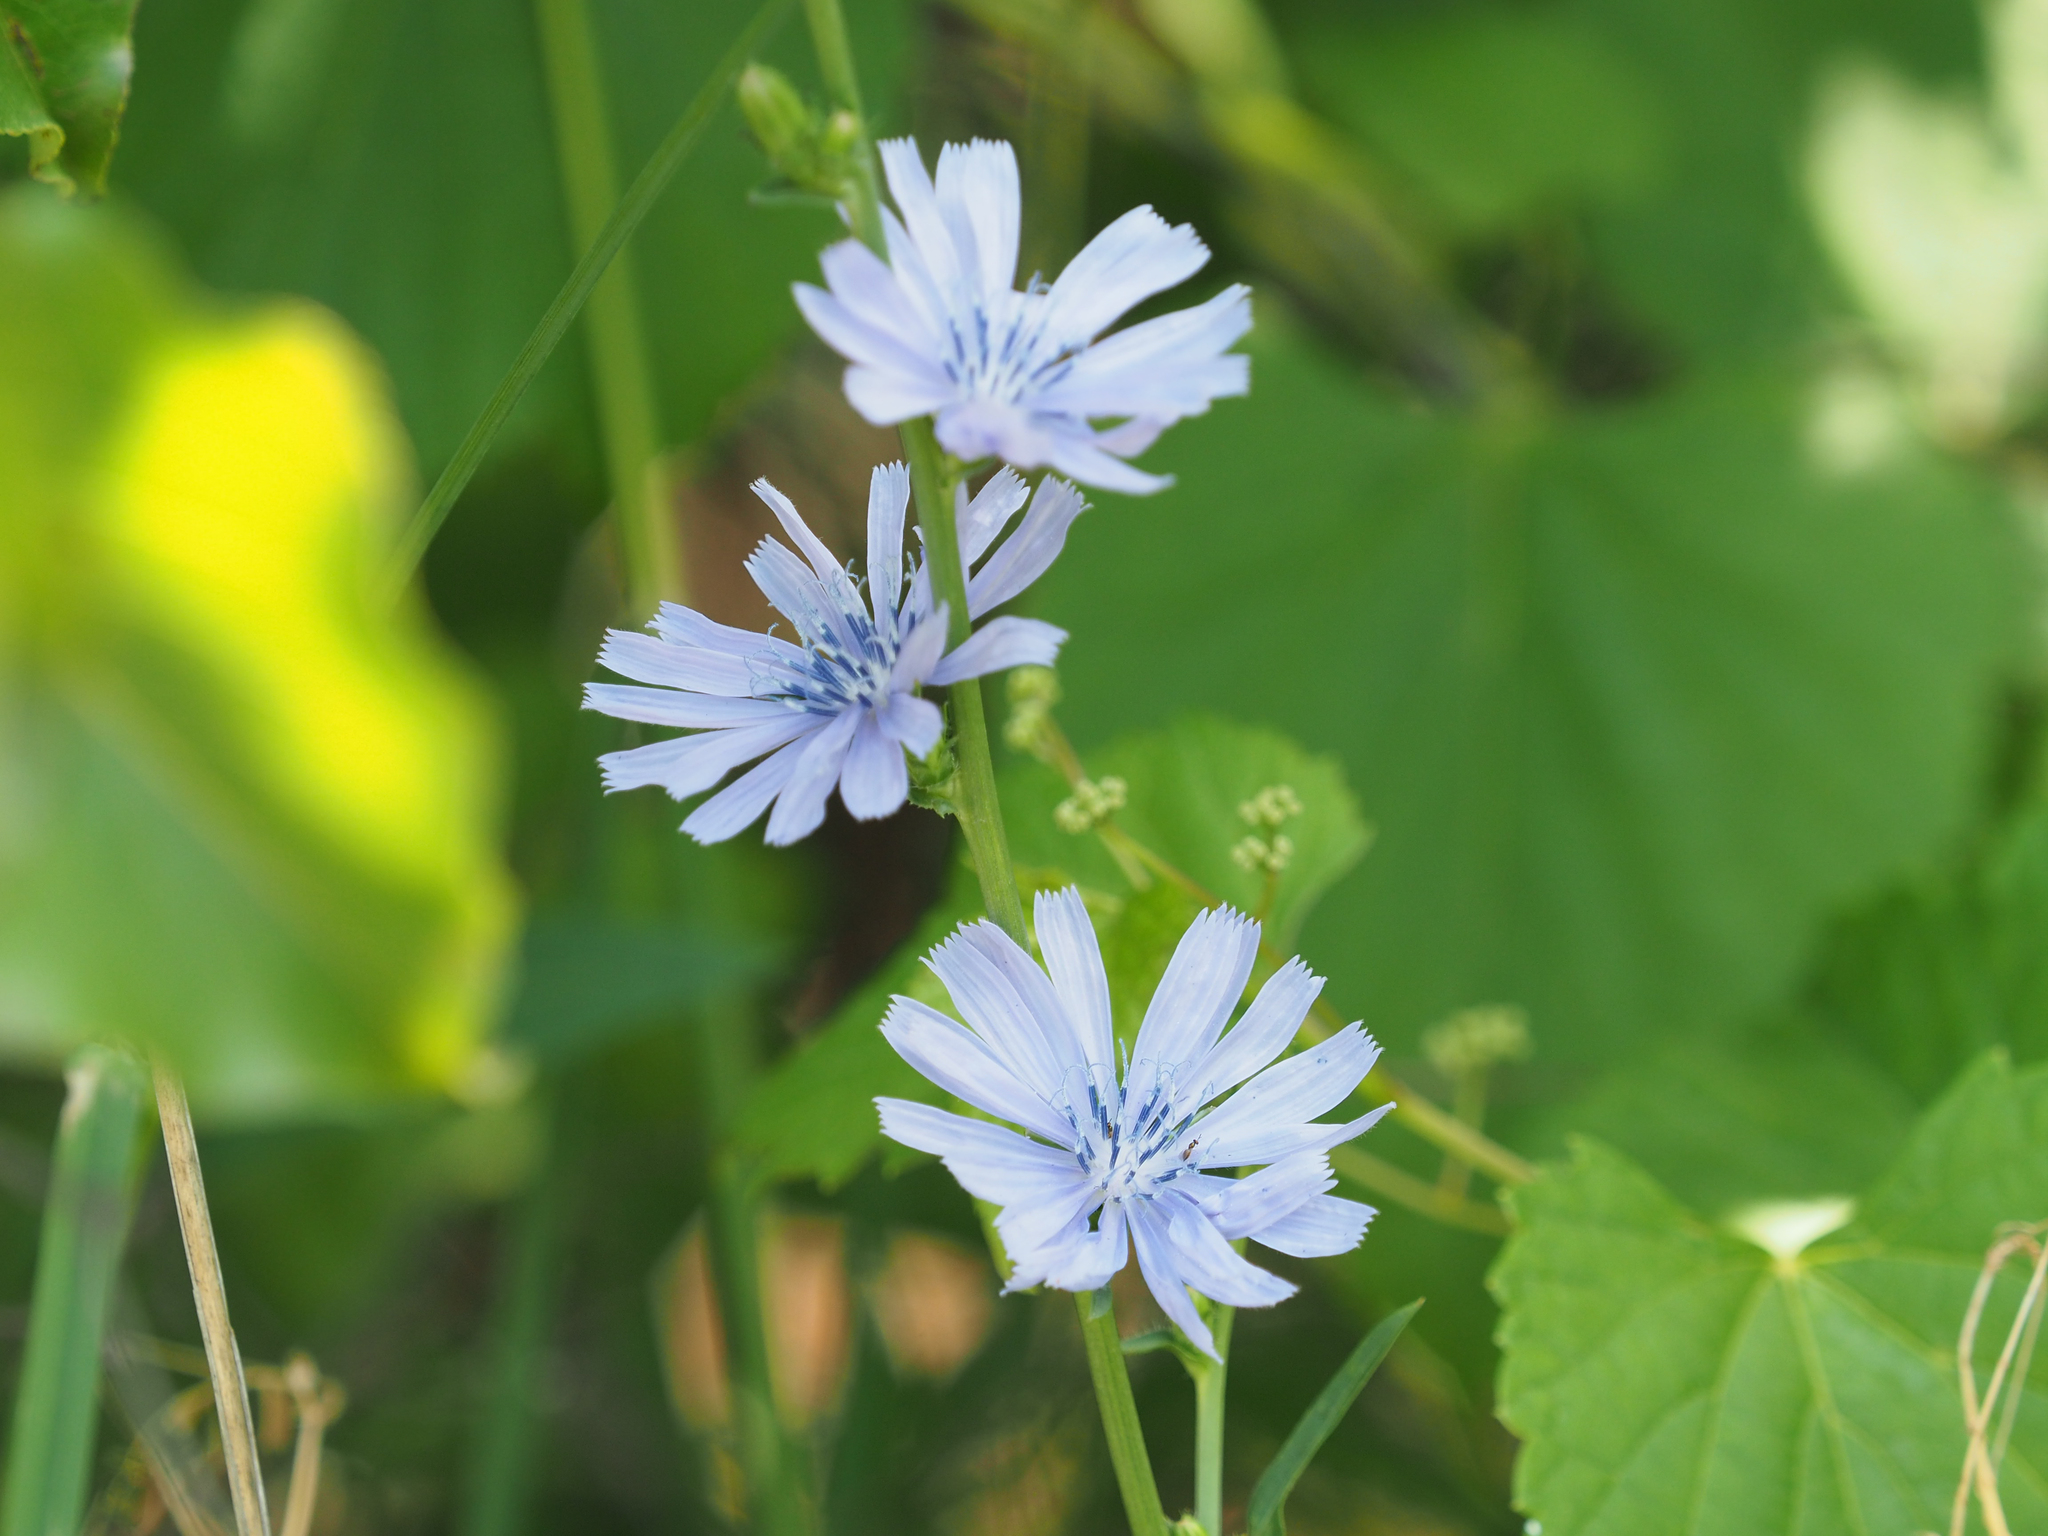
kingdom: Plantae
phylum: Tracheophyta
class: Magnoliopsida
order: Asterales
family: Asteraceae
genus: Cichorium
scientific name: Cichorium intybus
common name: Chicory
